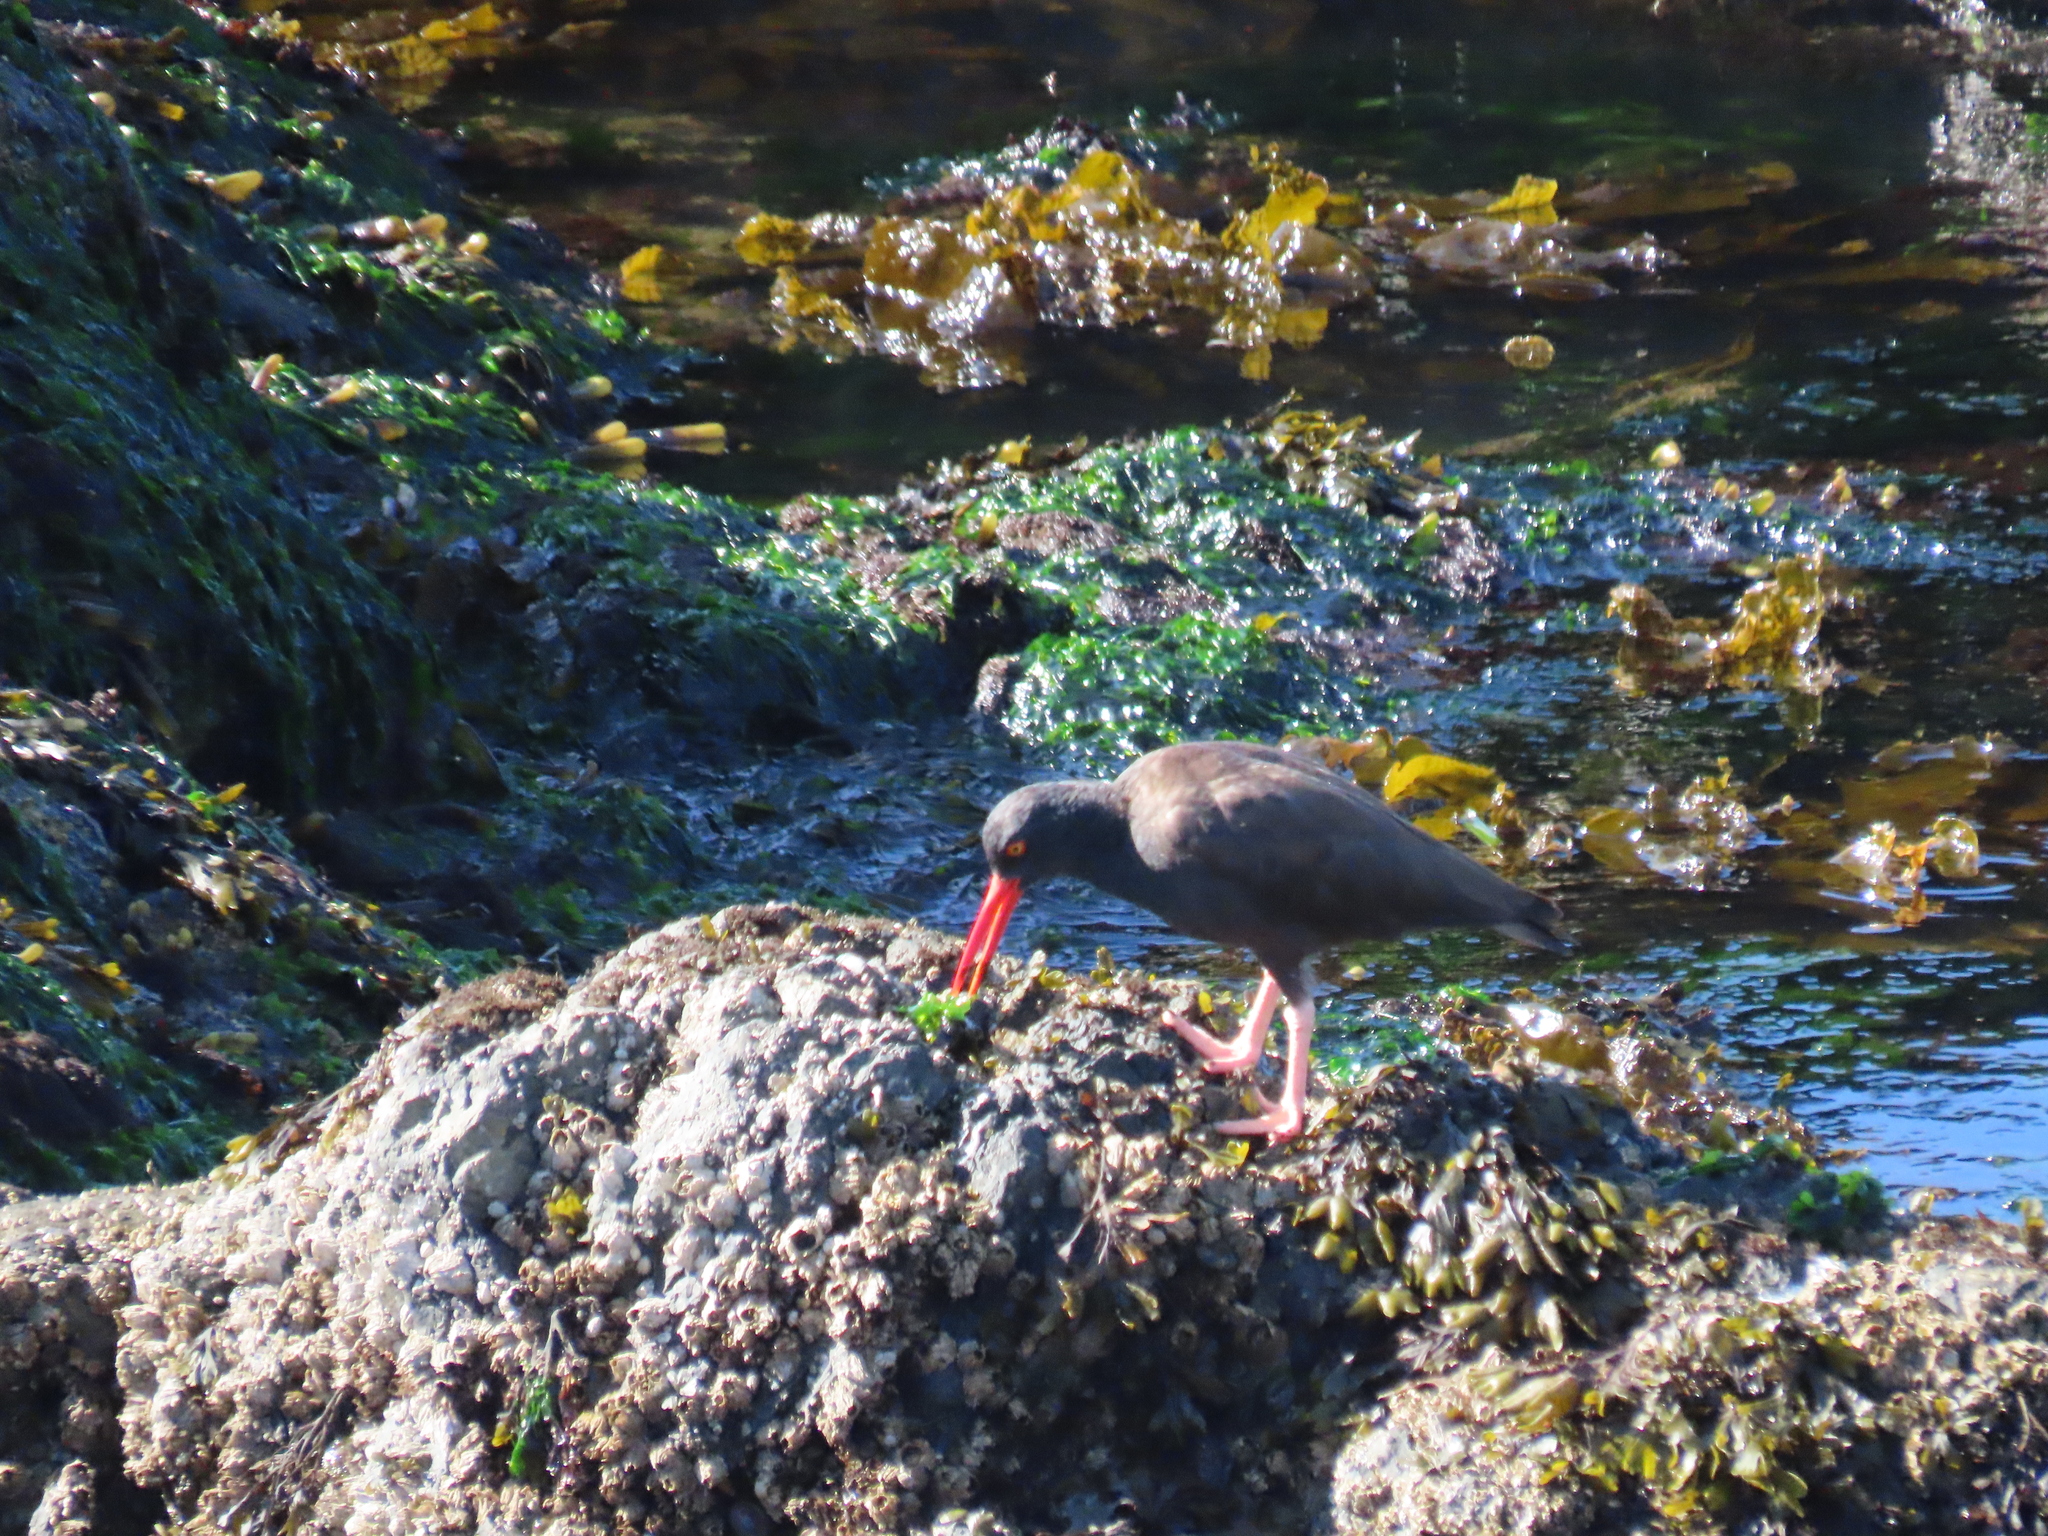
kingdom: Animalia
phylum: Chordata
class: Aves
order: Charadriiformes
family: Haematopodidae
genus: Haematopus
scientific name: Haematopus bachmani
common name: Black oystercatcher
